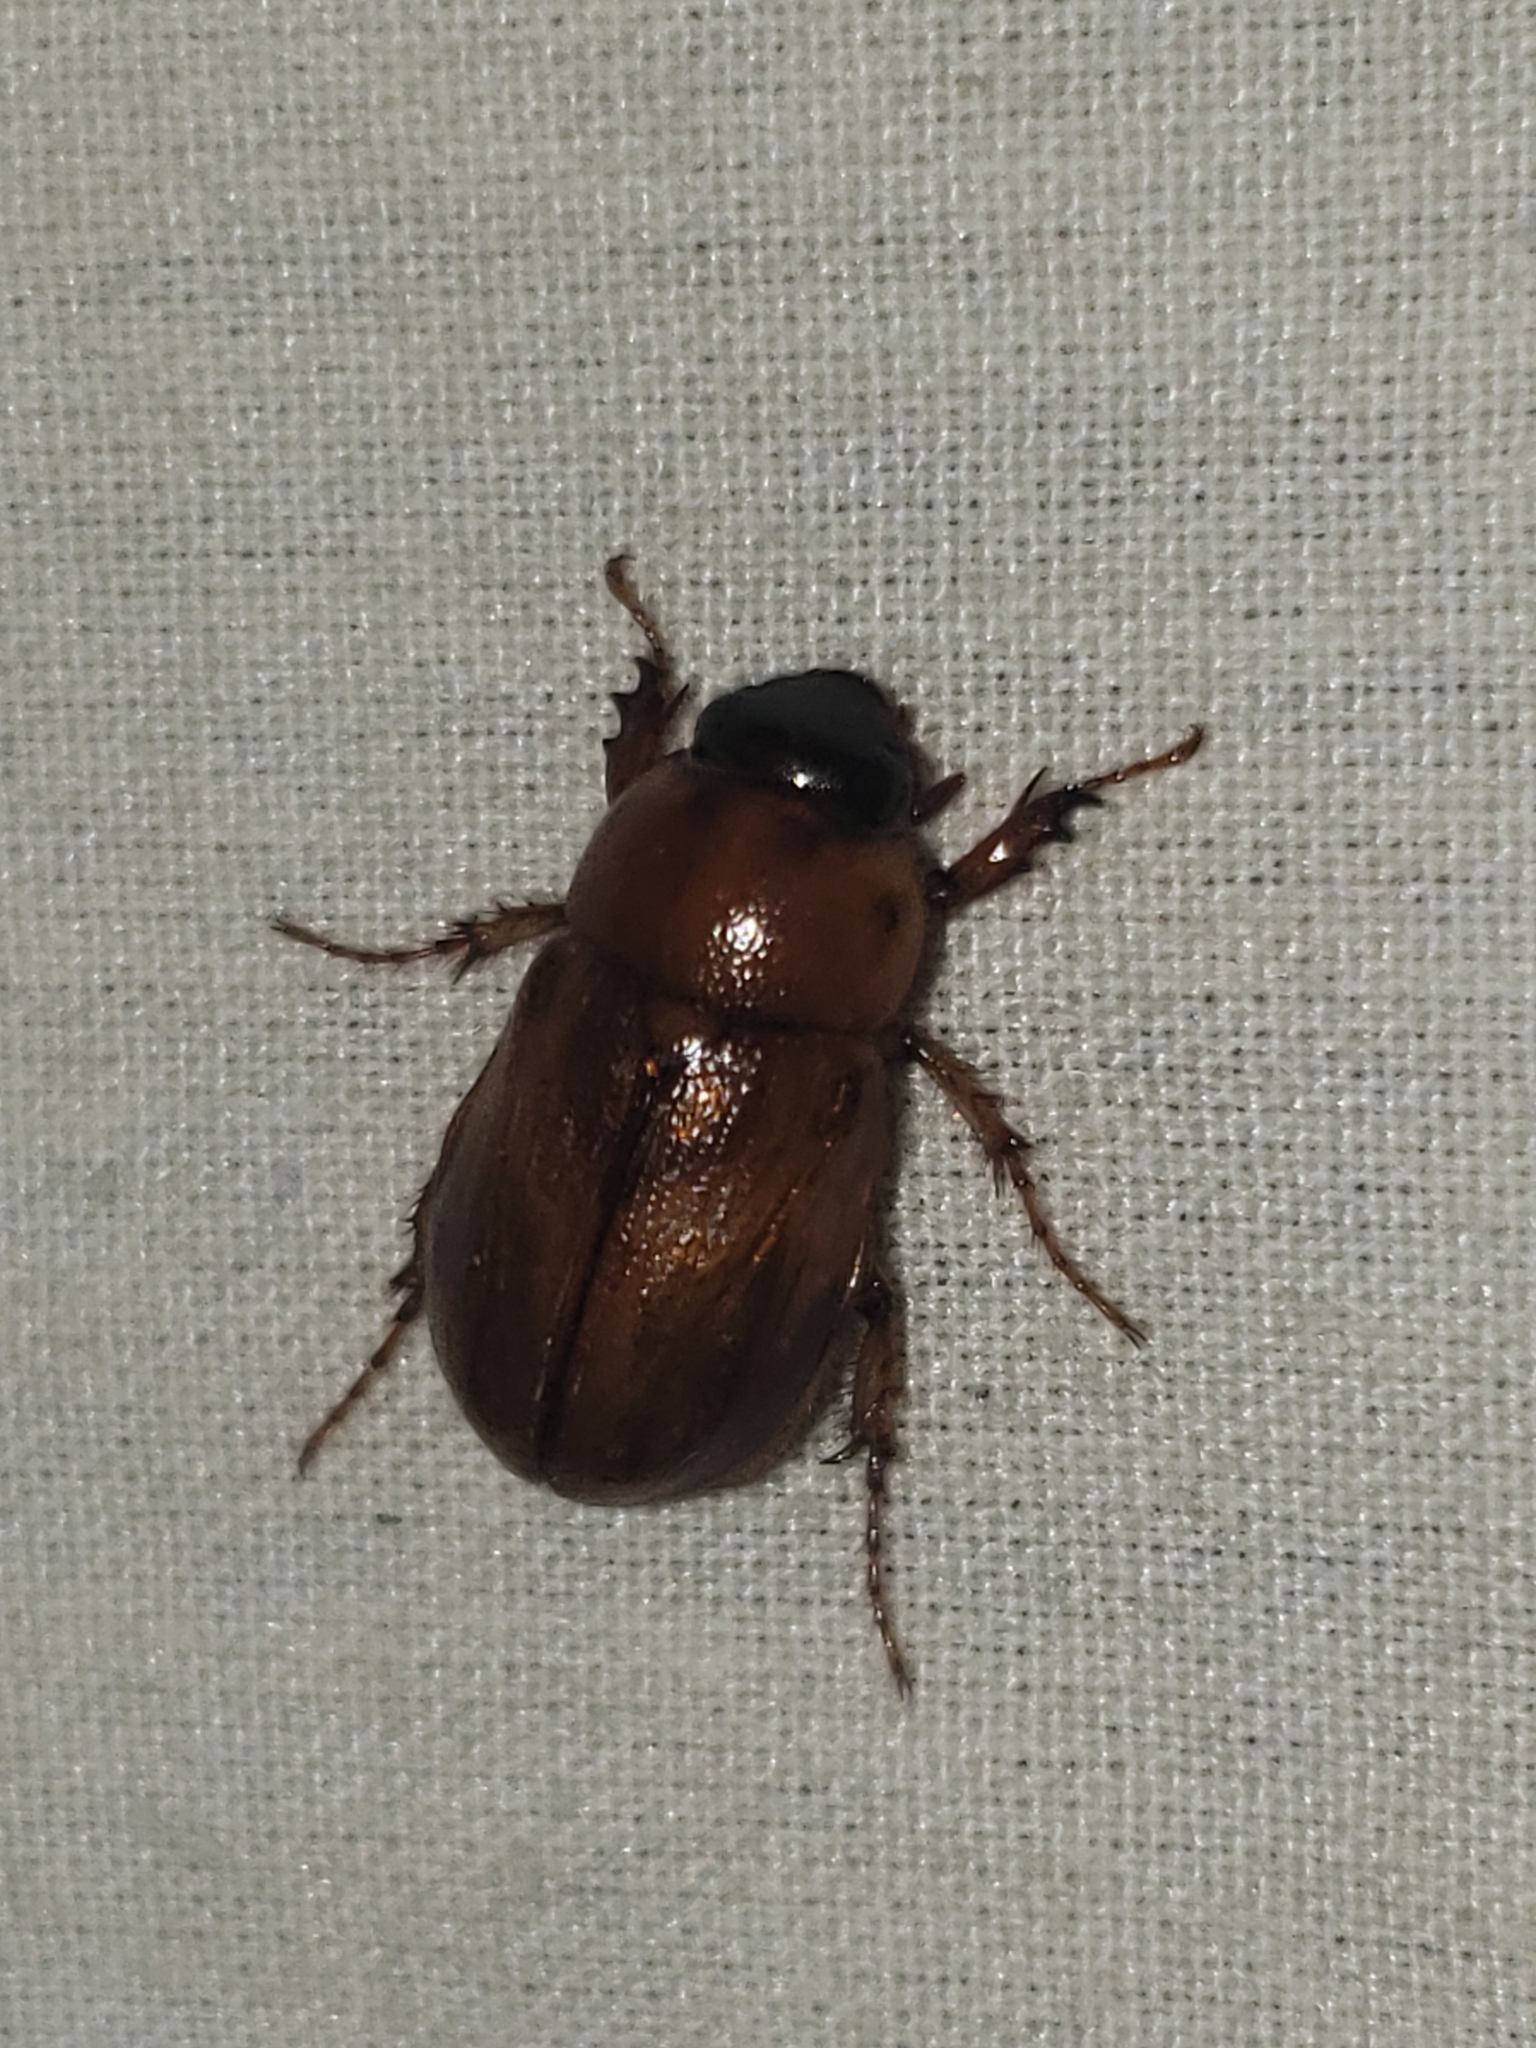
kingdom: Animalia
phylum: Arthropoda
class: Insecta
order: Coleoptera
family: Scarabaeidae
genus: Cyclocephala
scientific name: Cyclocephala lurida
